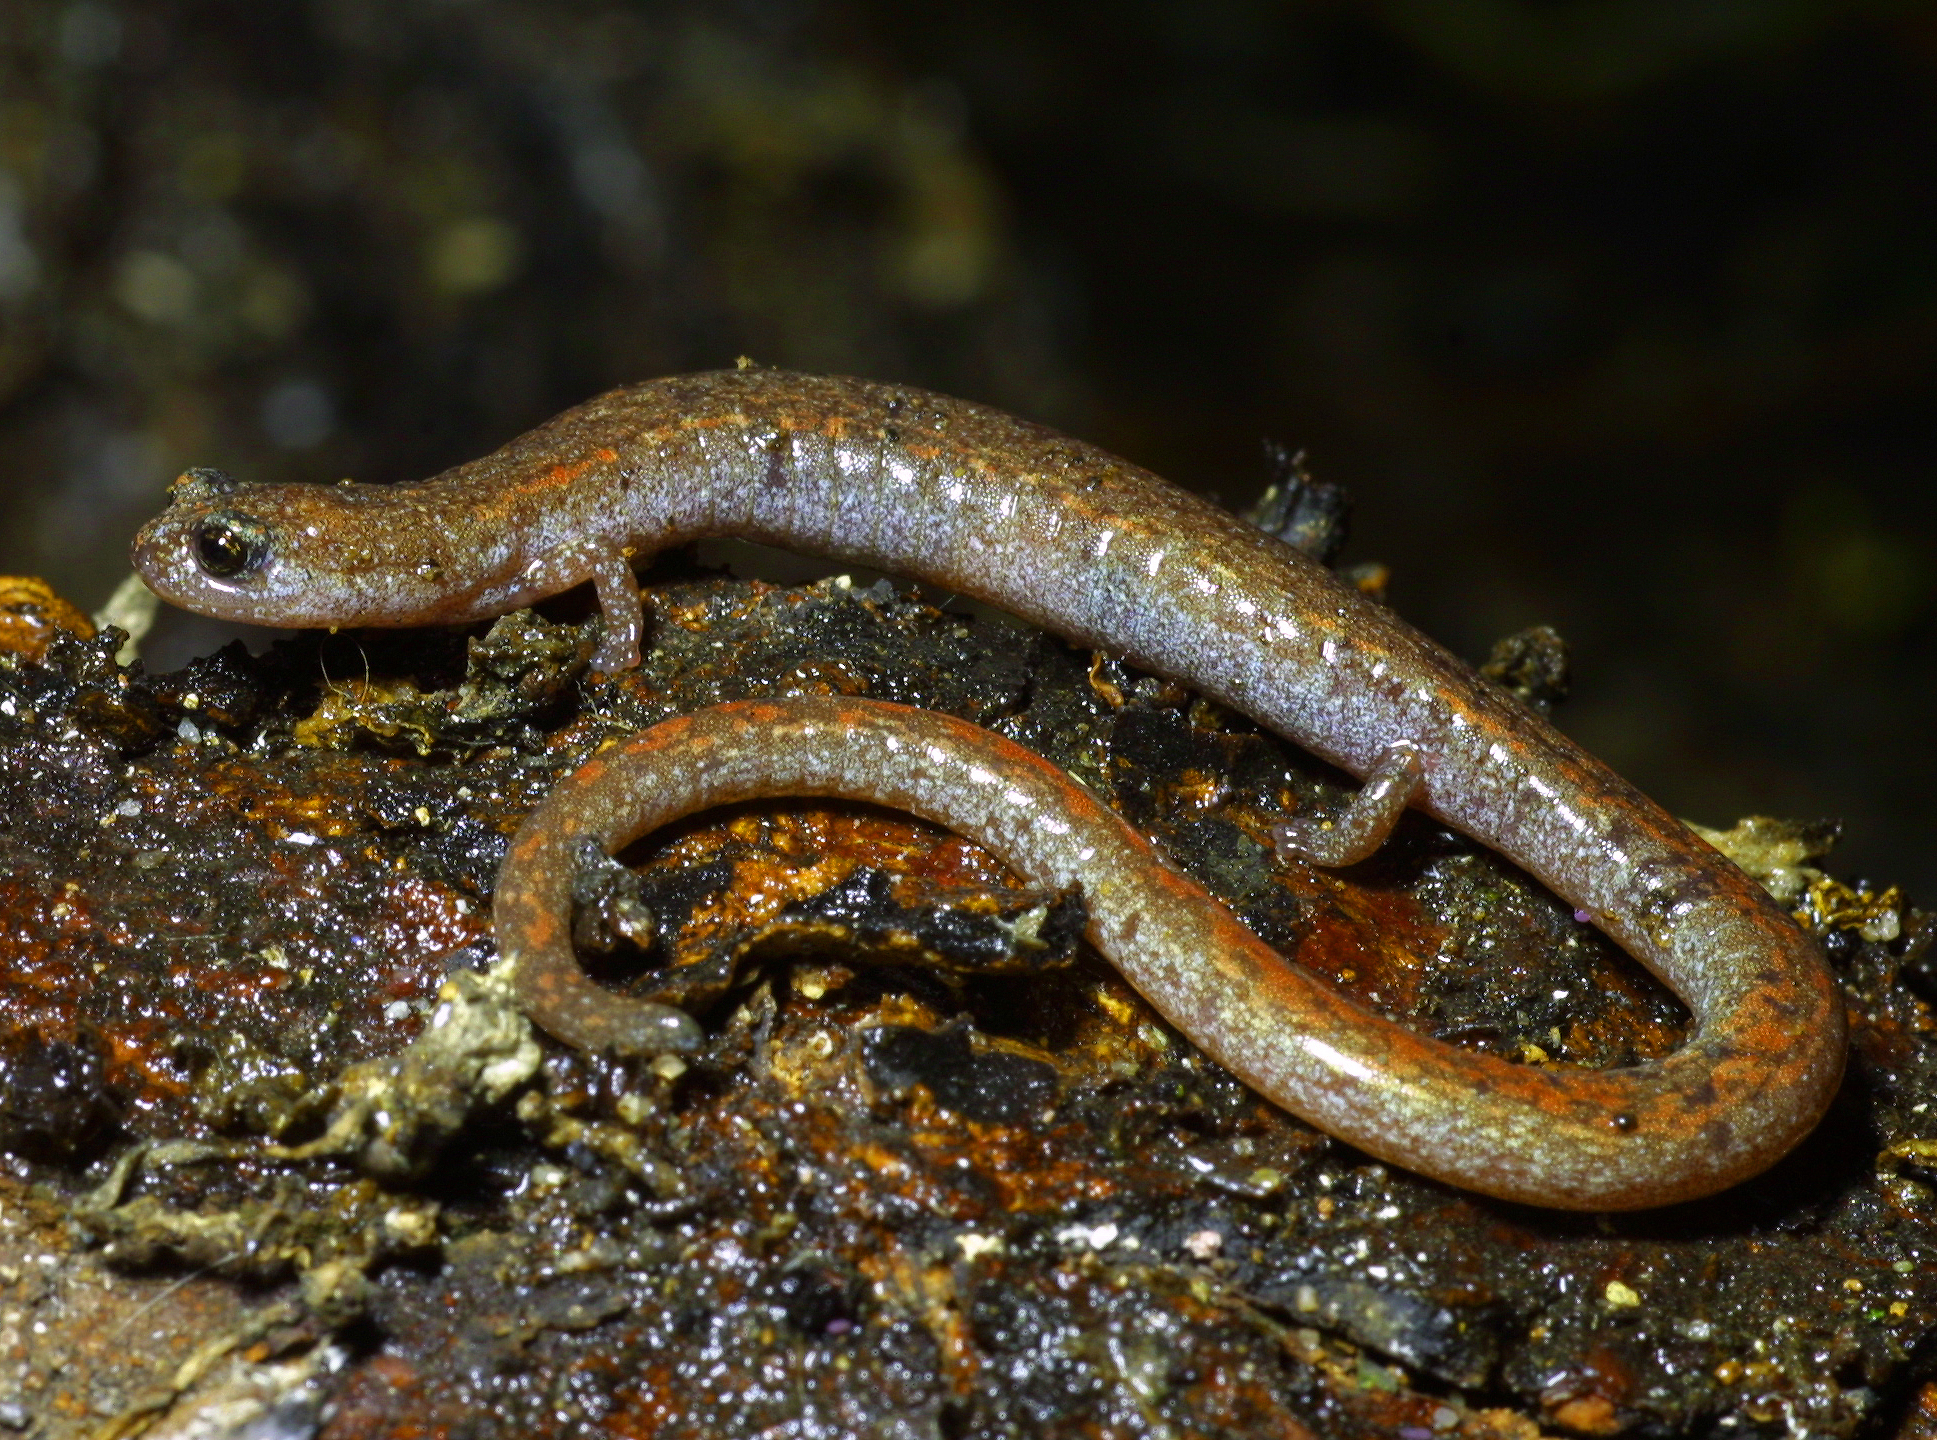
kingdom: Animalia
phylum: Chordata
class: Amphibia
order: Caudata
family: Plethodontidae
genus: Batrachoseps
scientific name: Batrachoseps major
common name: Garden slender salamander
